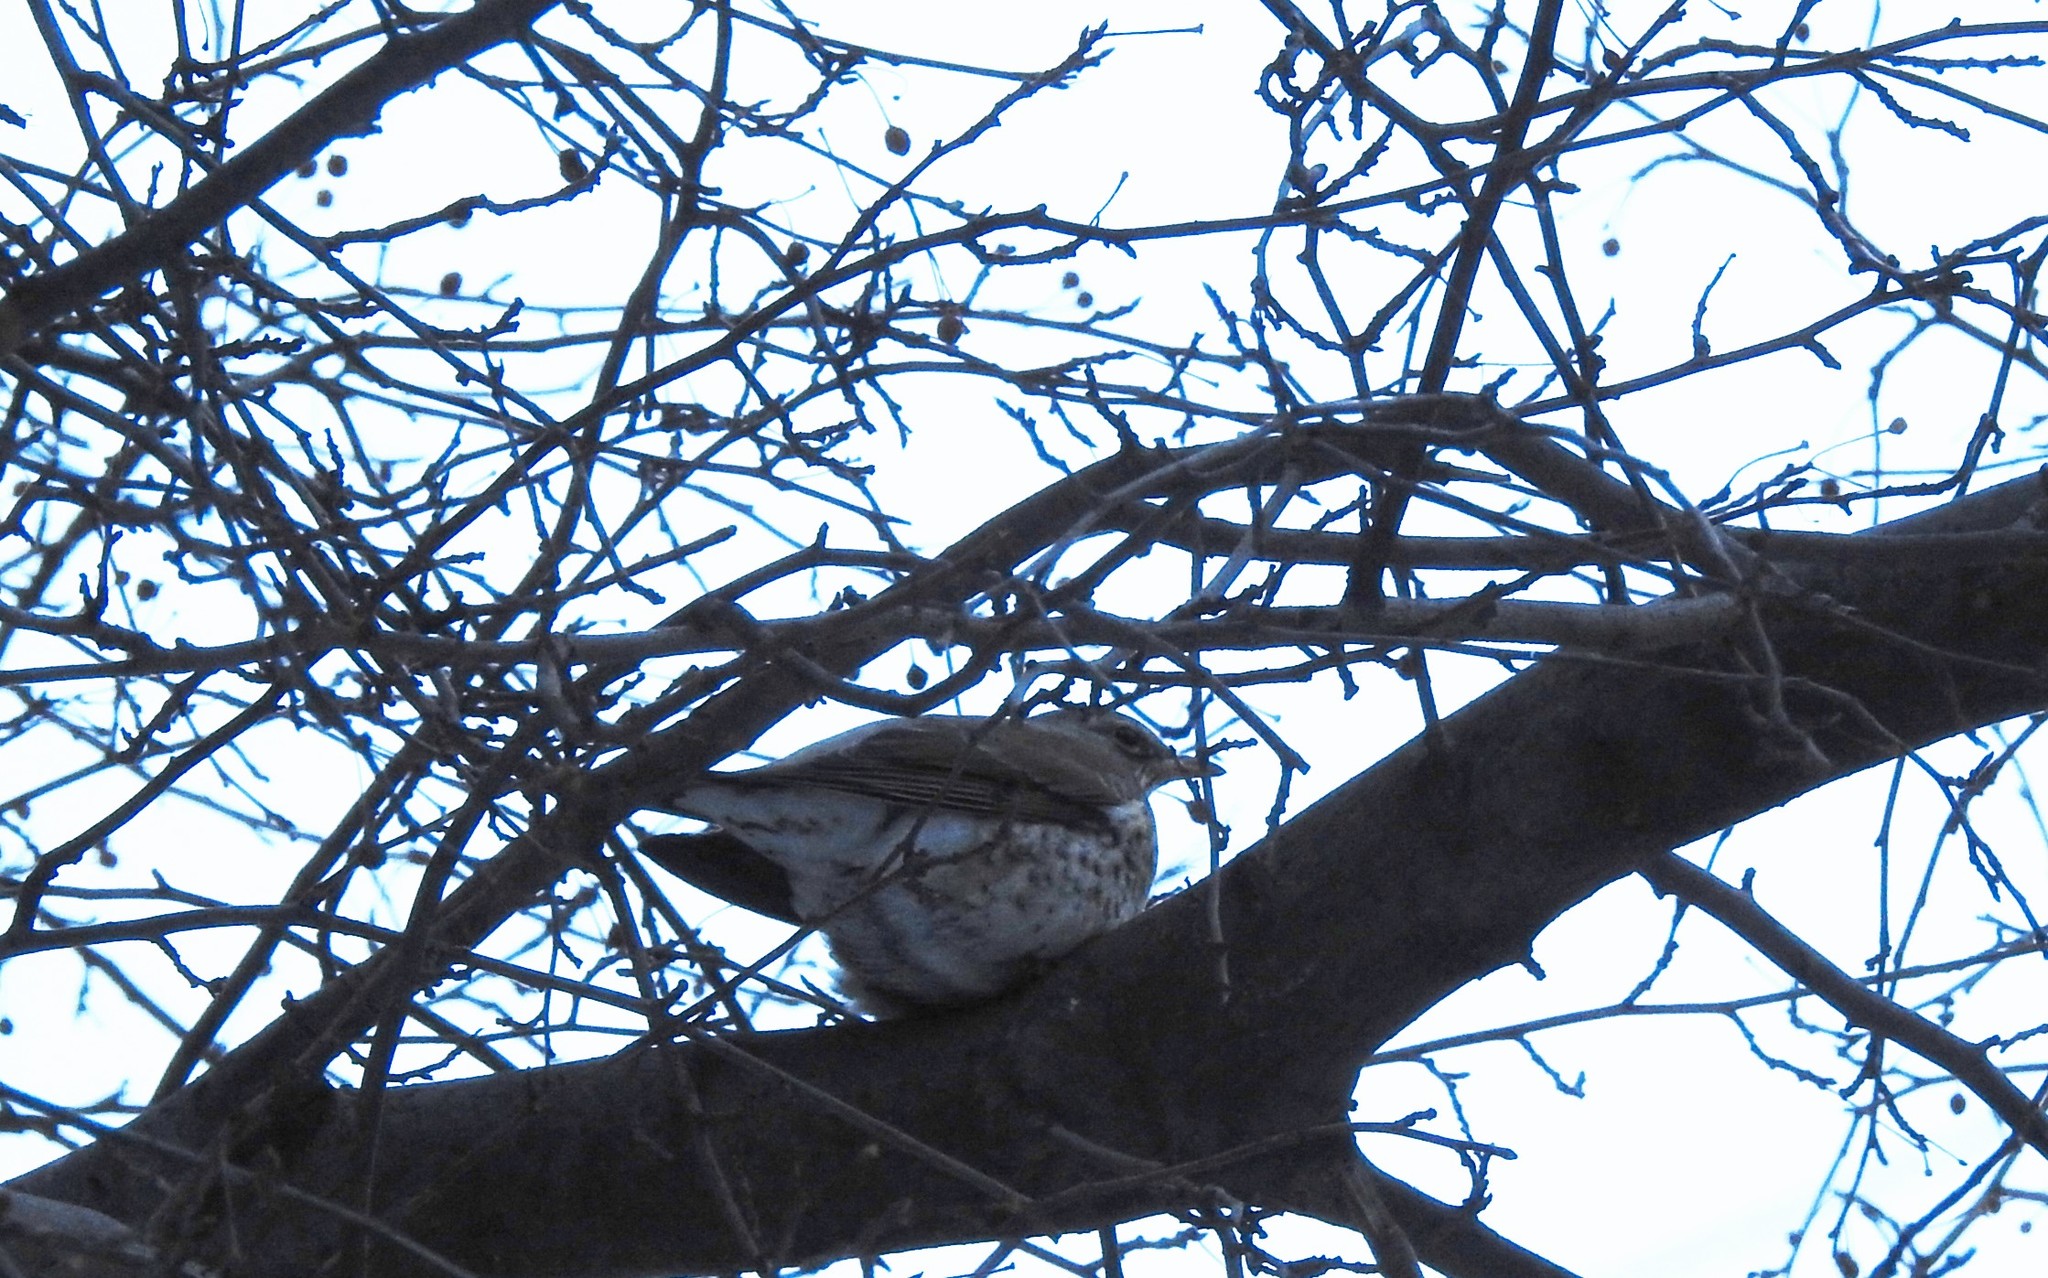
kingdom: Animalia
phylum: Chordata
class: Aves
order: Passeriformes
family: Turdidae
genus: Turdus
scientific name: Turdus pilaris
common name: Fieldfare
